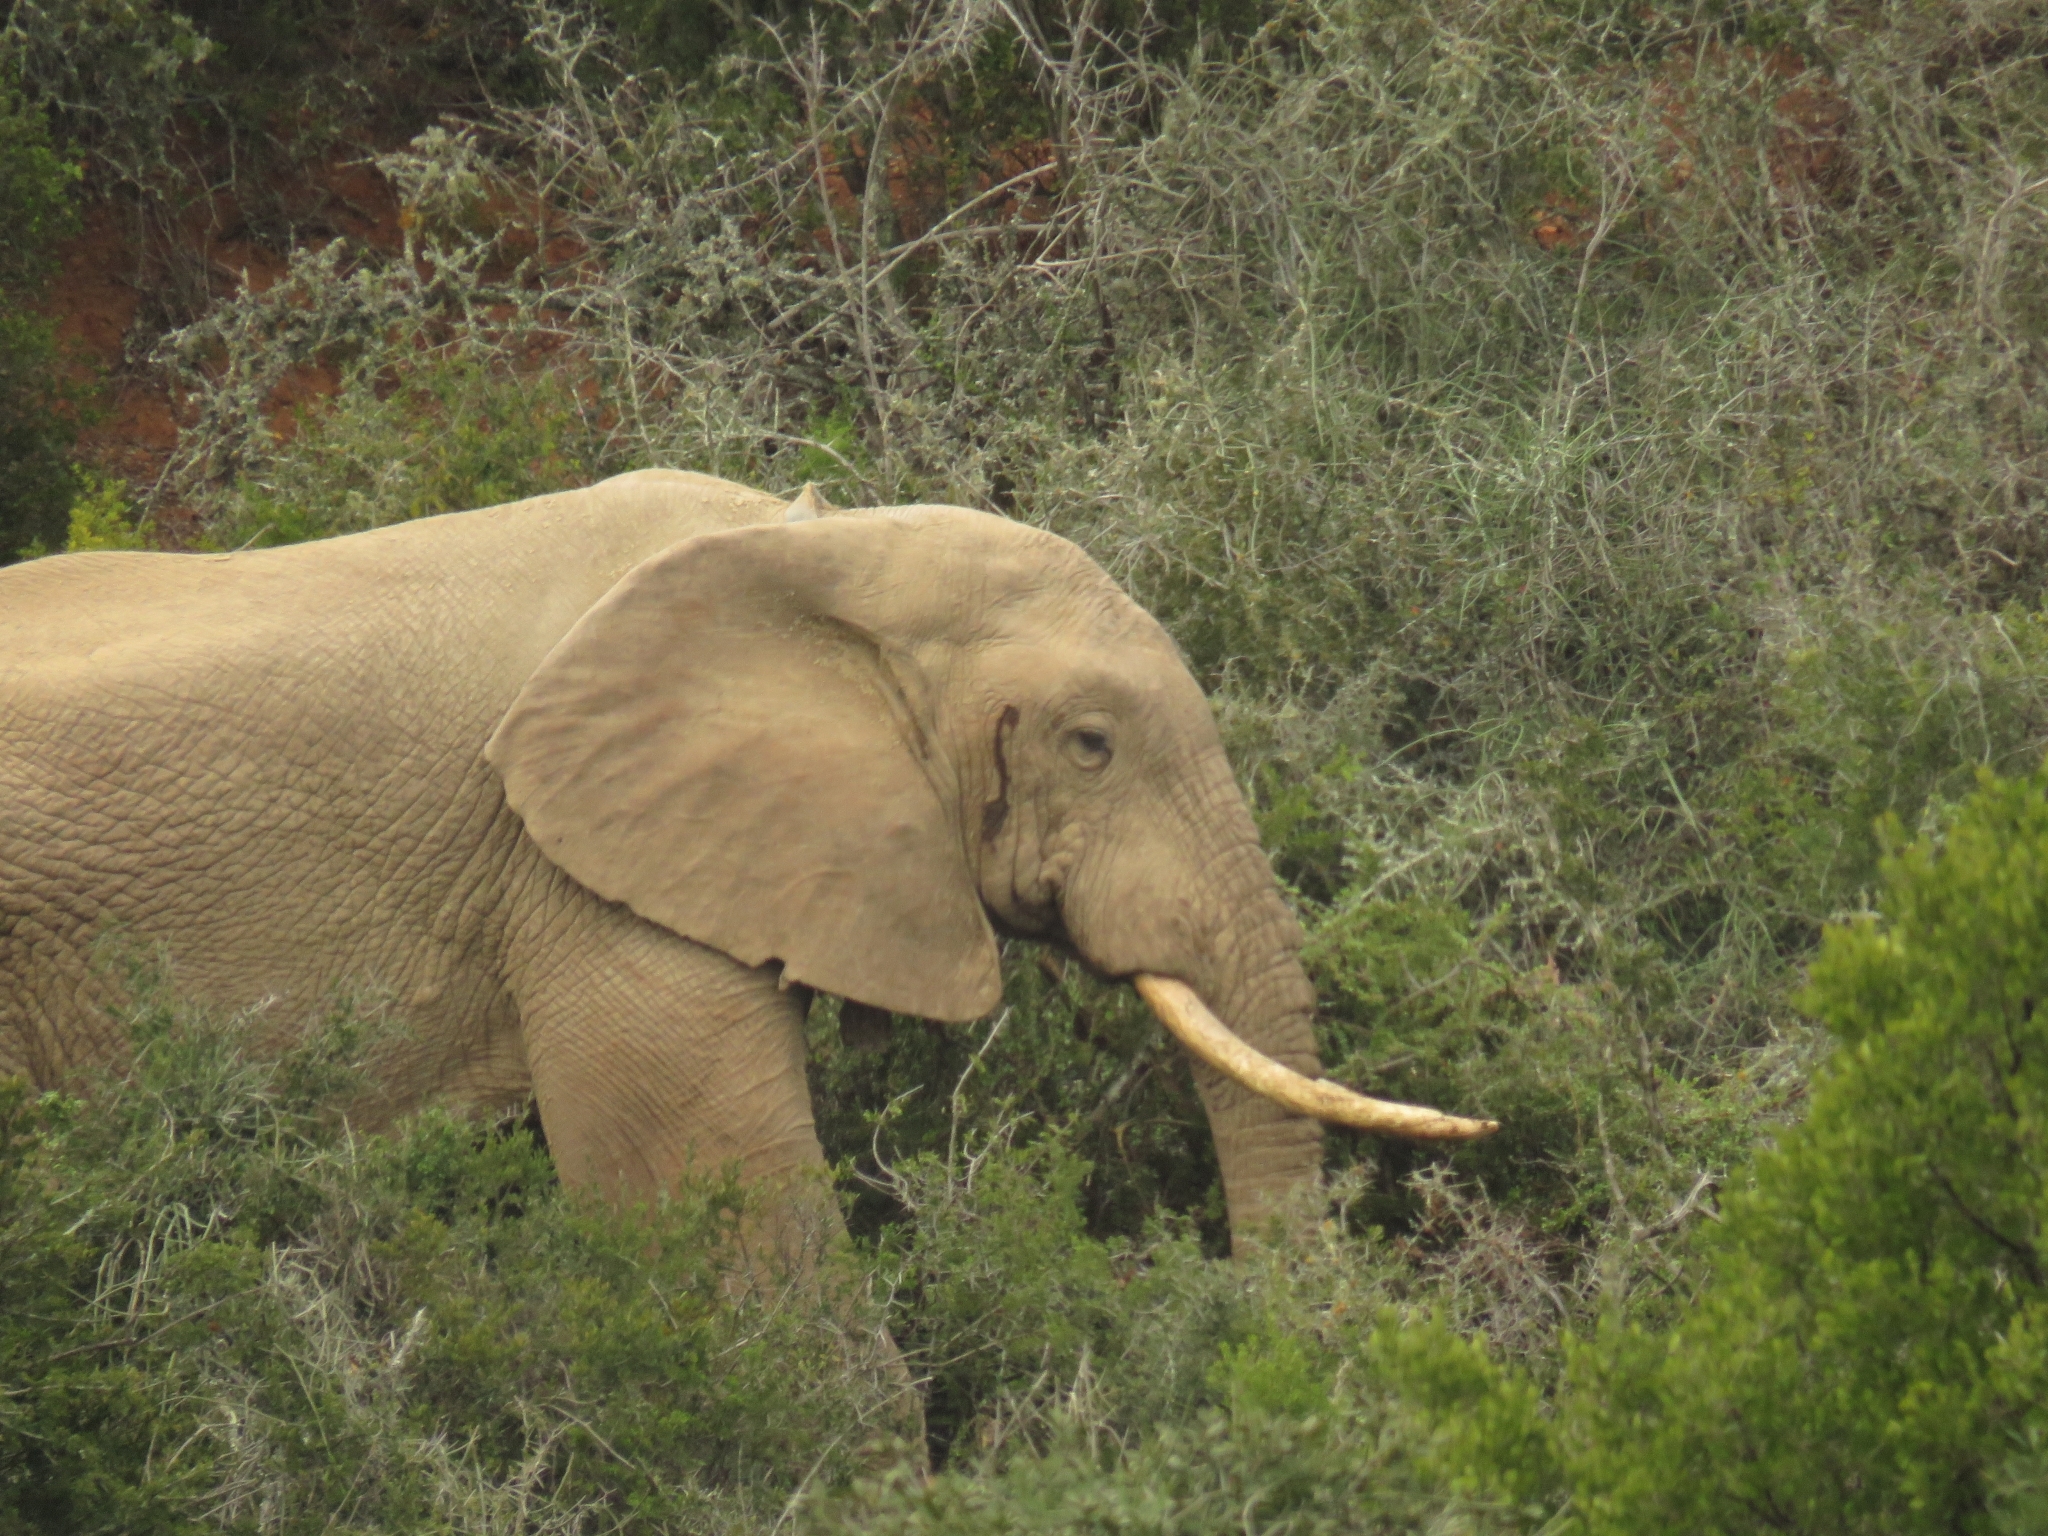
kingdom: Animalia
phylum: Chordata
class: Mammalia
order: Proboscidea
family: Elephantidae
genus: Loxodonta
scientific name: Loxodonta africana
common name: African elephant
